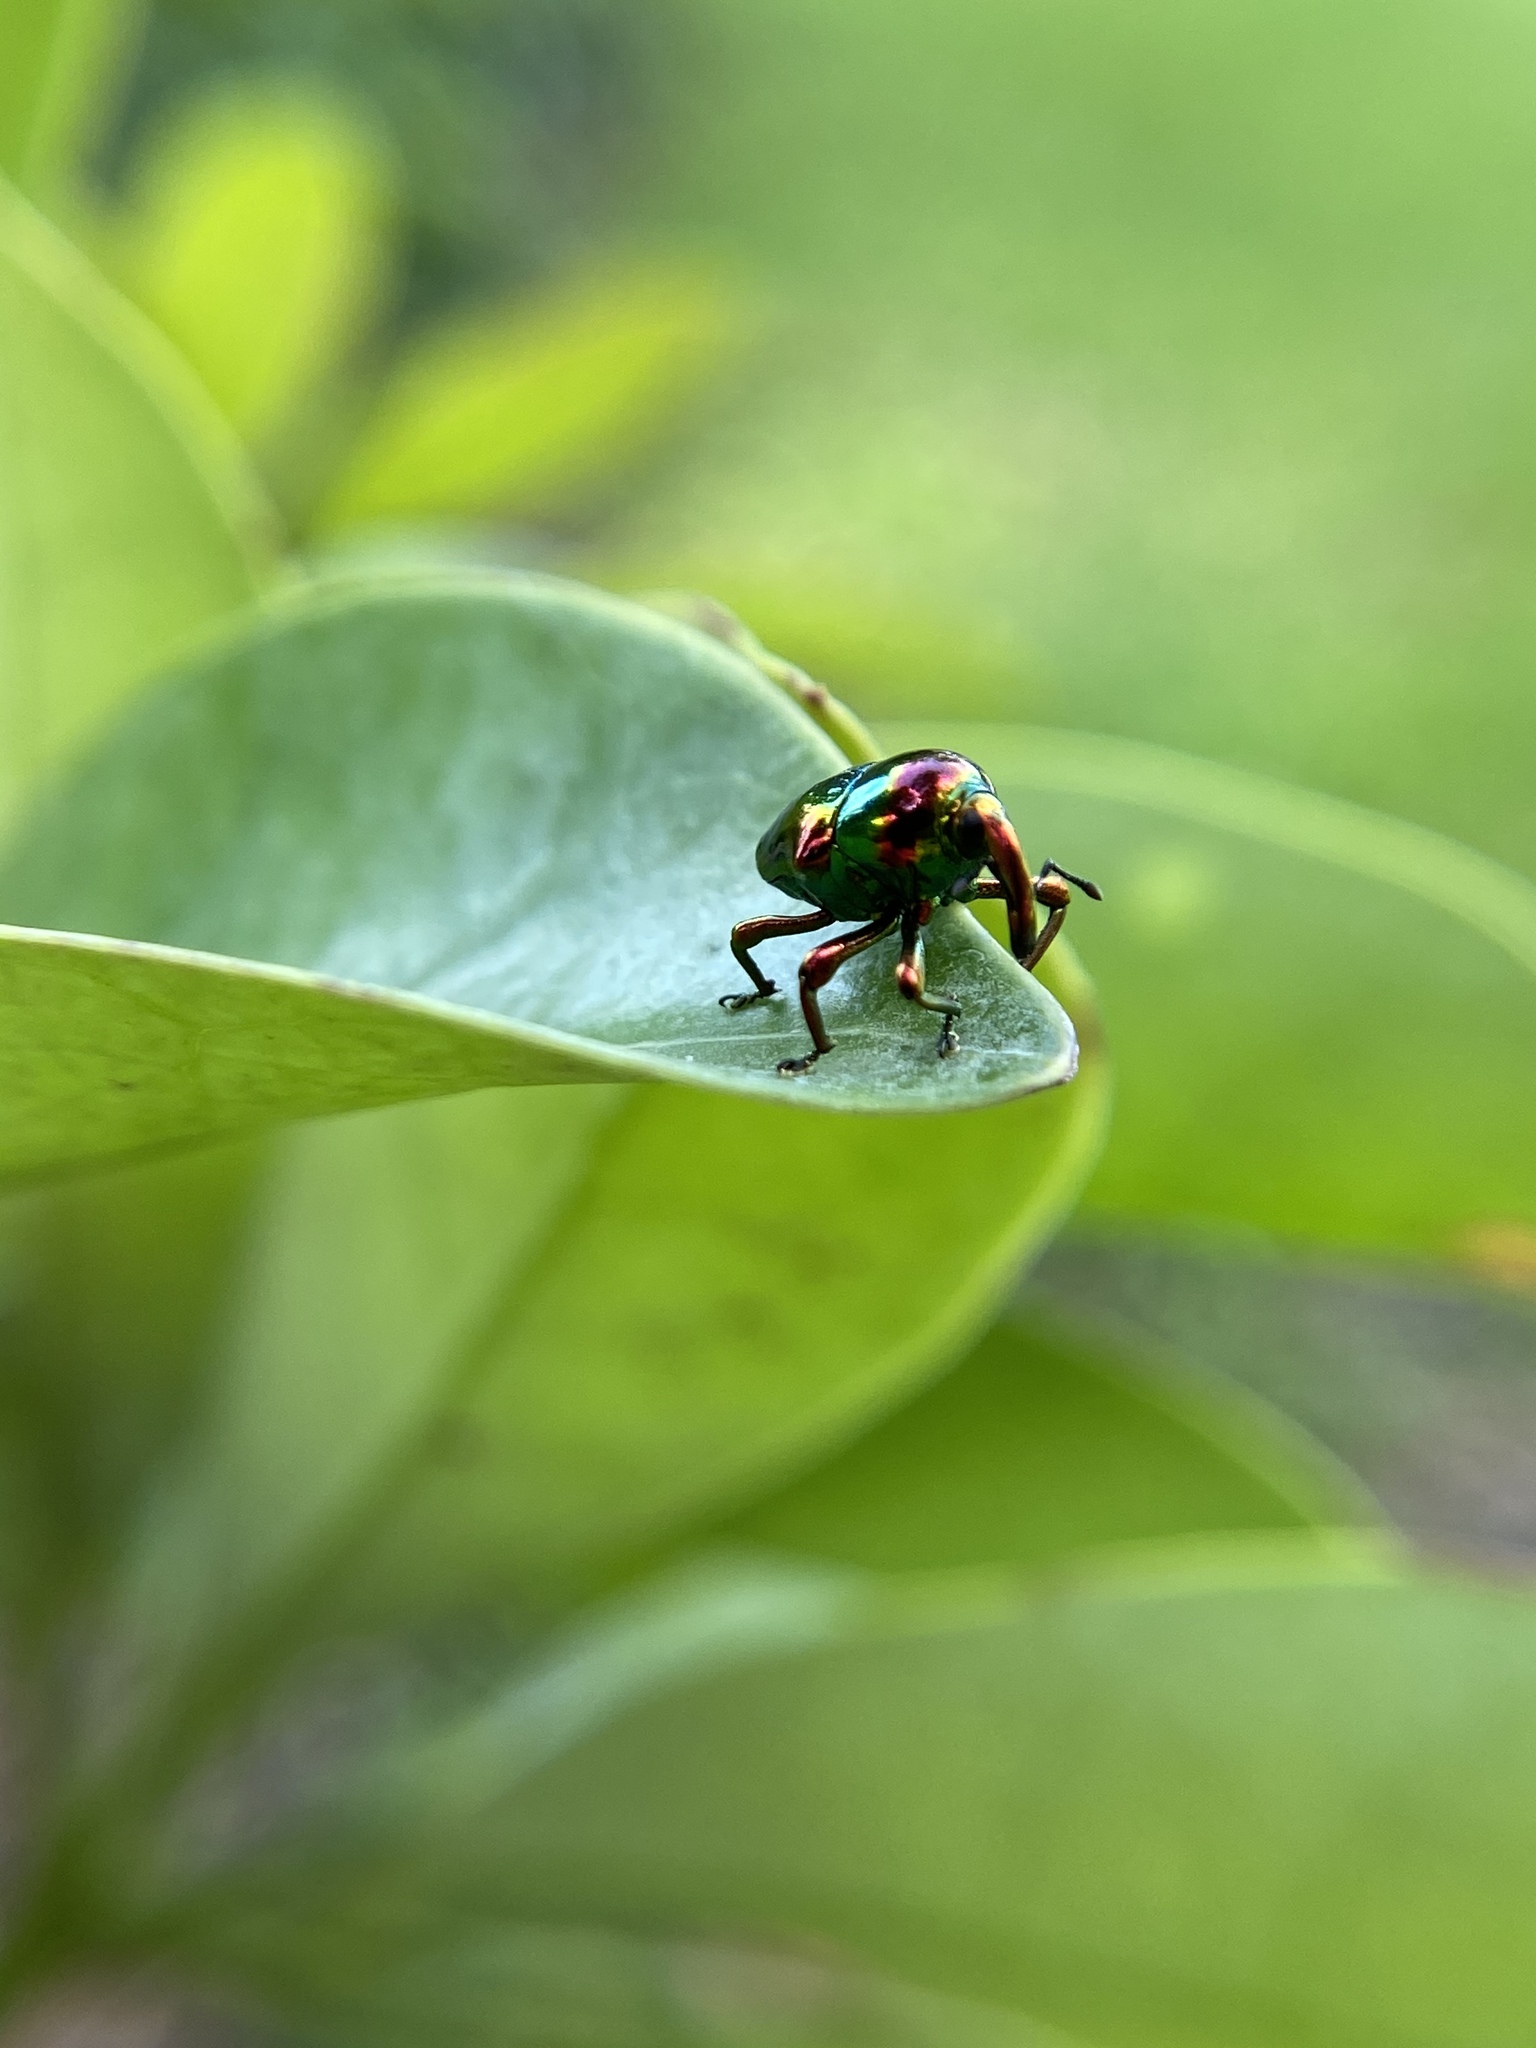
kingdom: Animalia
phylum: Arthropoda
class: Insecta
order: Coleoptera
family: Eurhynchidae
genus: Eurhinus
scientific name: Eurhinus magnificus
